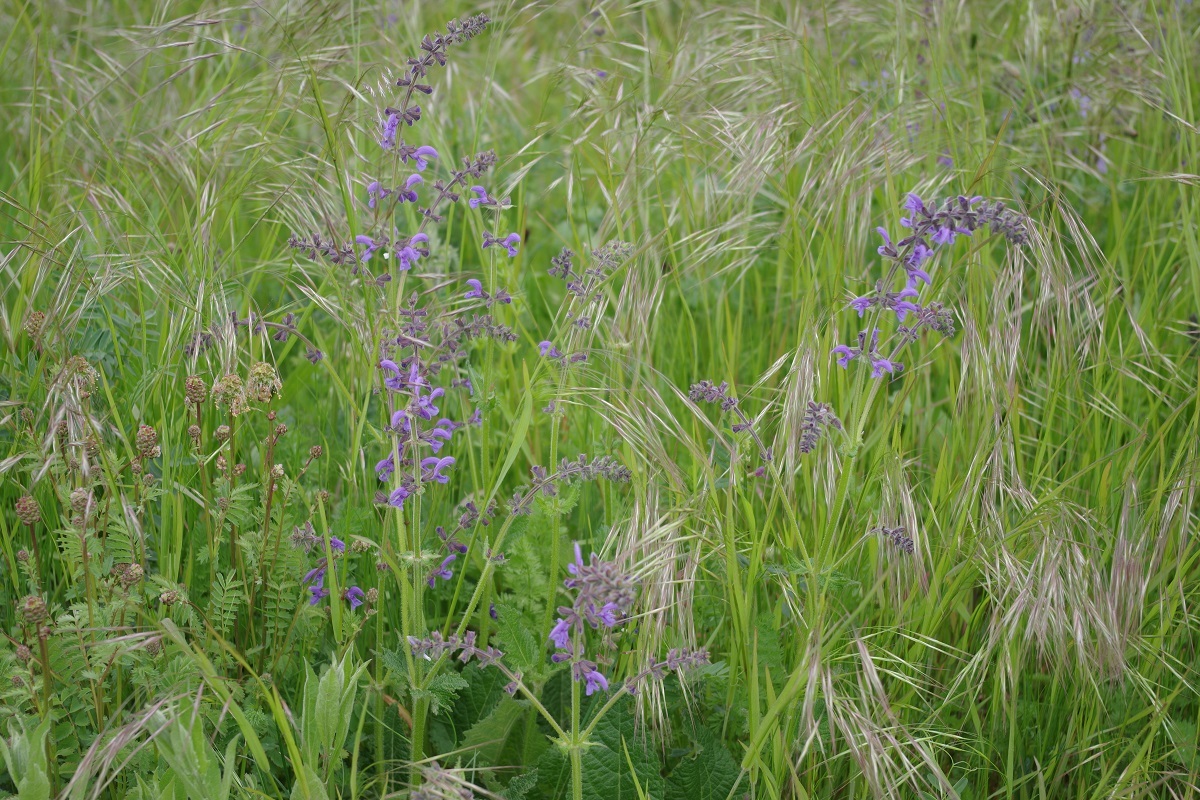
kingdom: Plantae
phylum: Tracheophyta
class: Magnoliopsida
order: Lamiales
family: Lamiaceae
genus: Salvia
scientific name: Salvia pratensis
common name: Meadow sage
